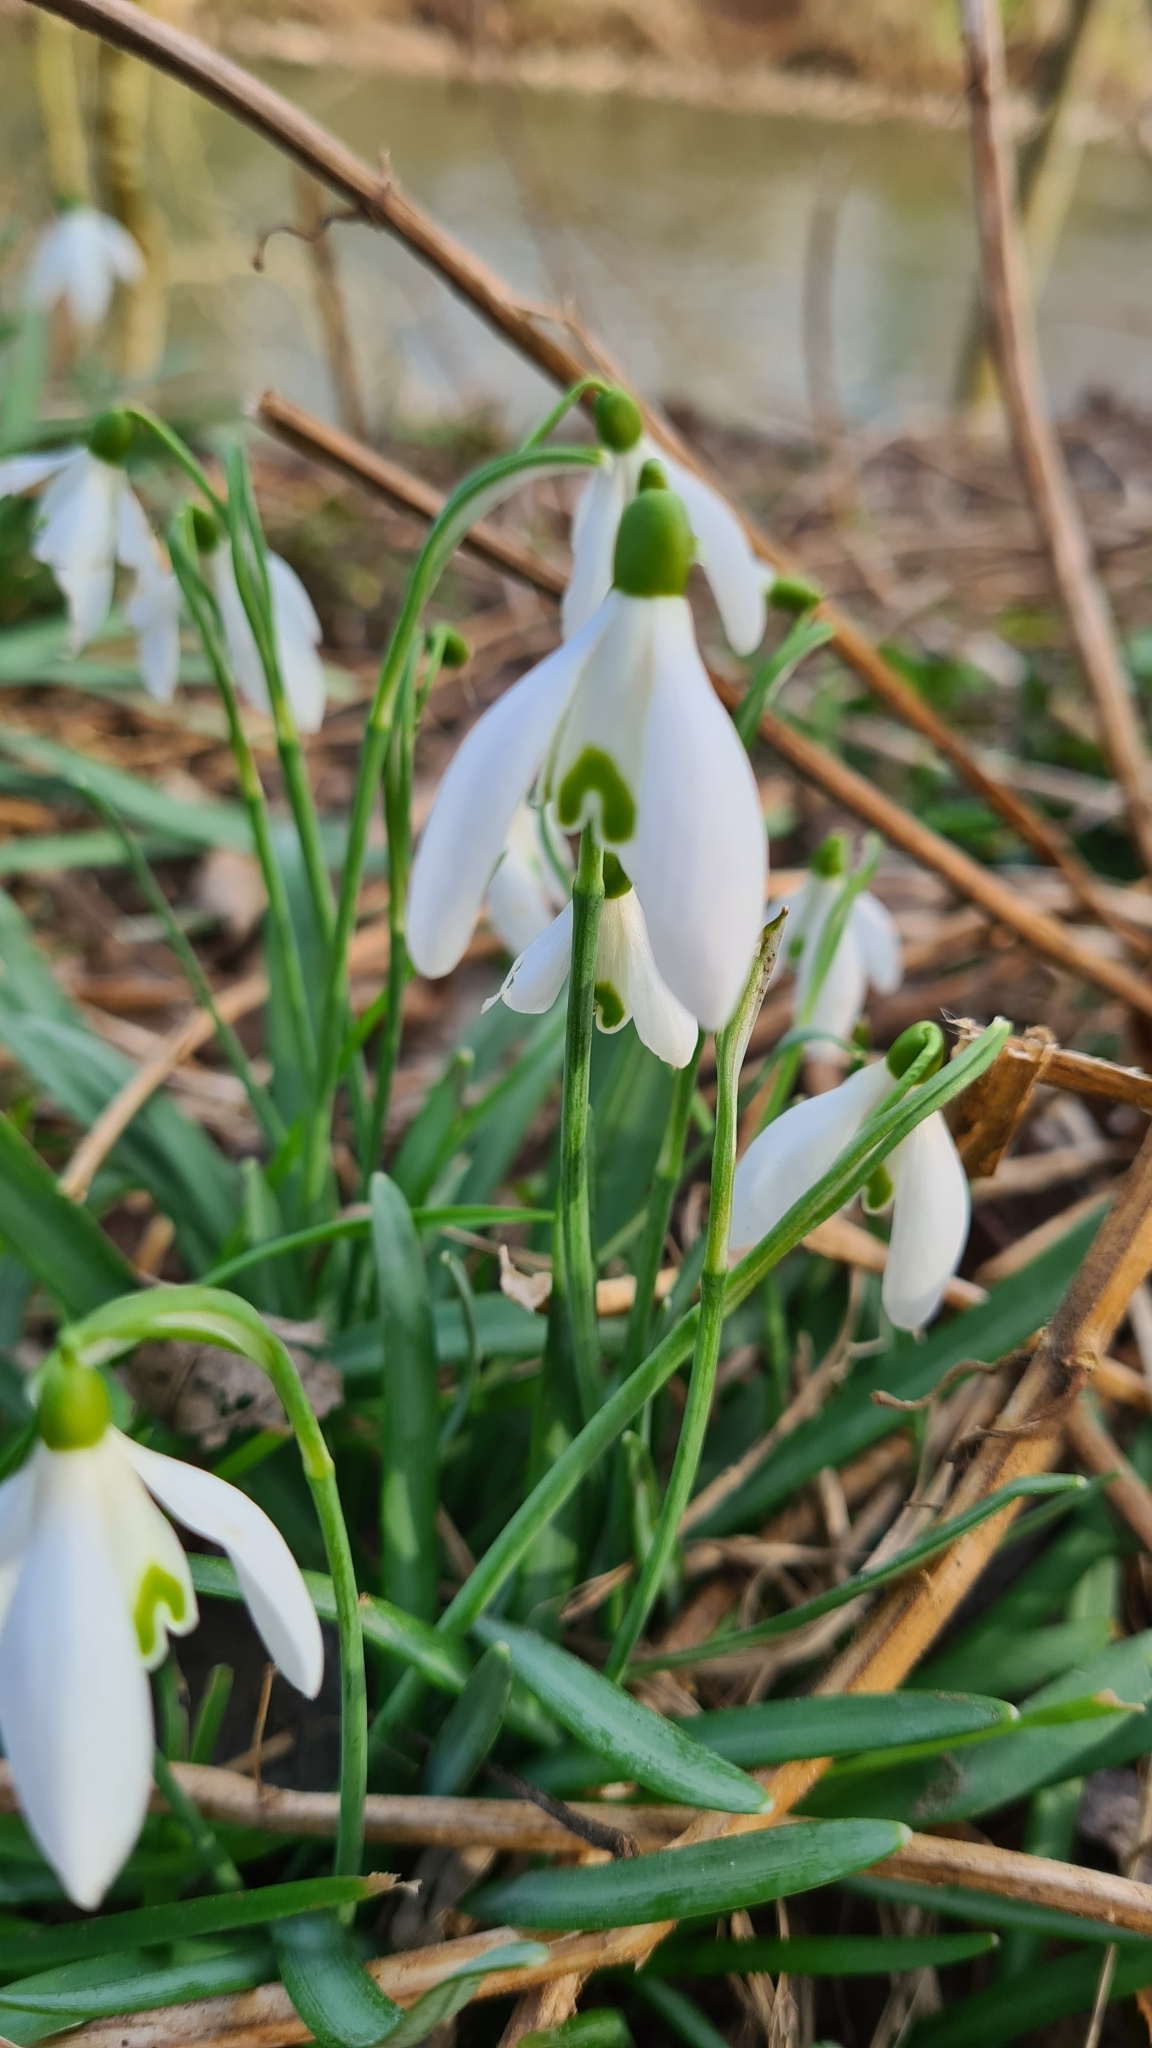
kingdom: Plantae
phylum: Tracheophyta
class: Liliopsida
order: Asparagales
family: Amaryllidaceae
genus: Galanthus
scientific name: Galanthus nivalis
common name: Snowdrop
